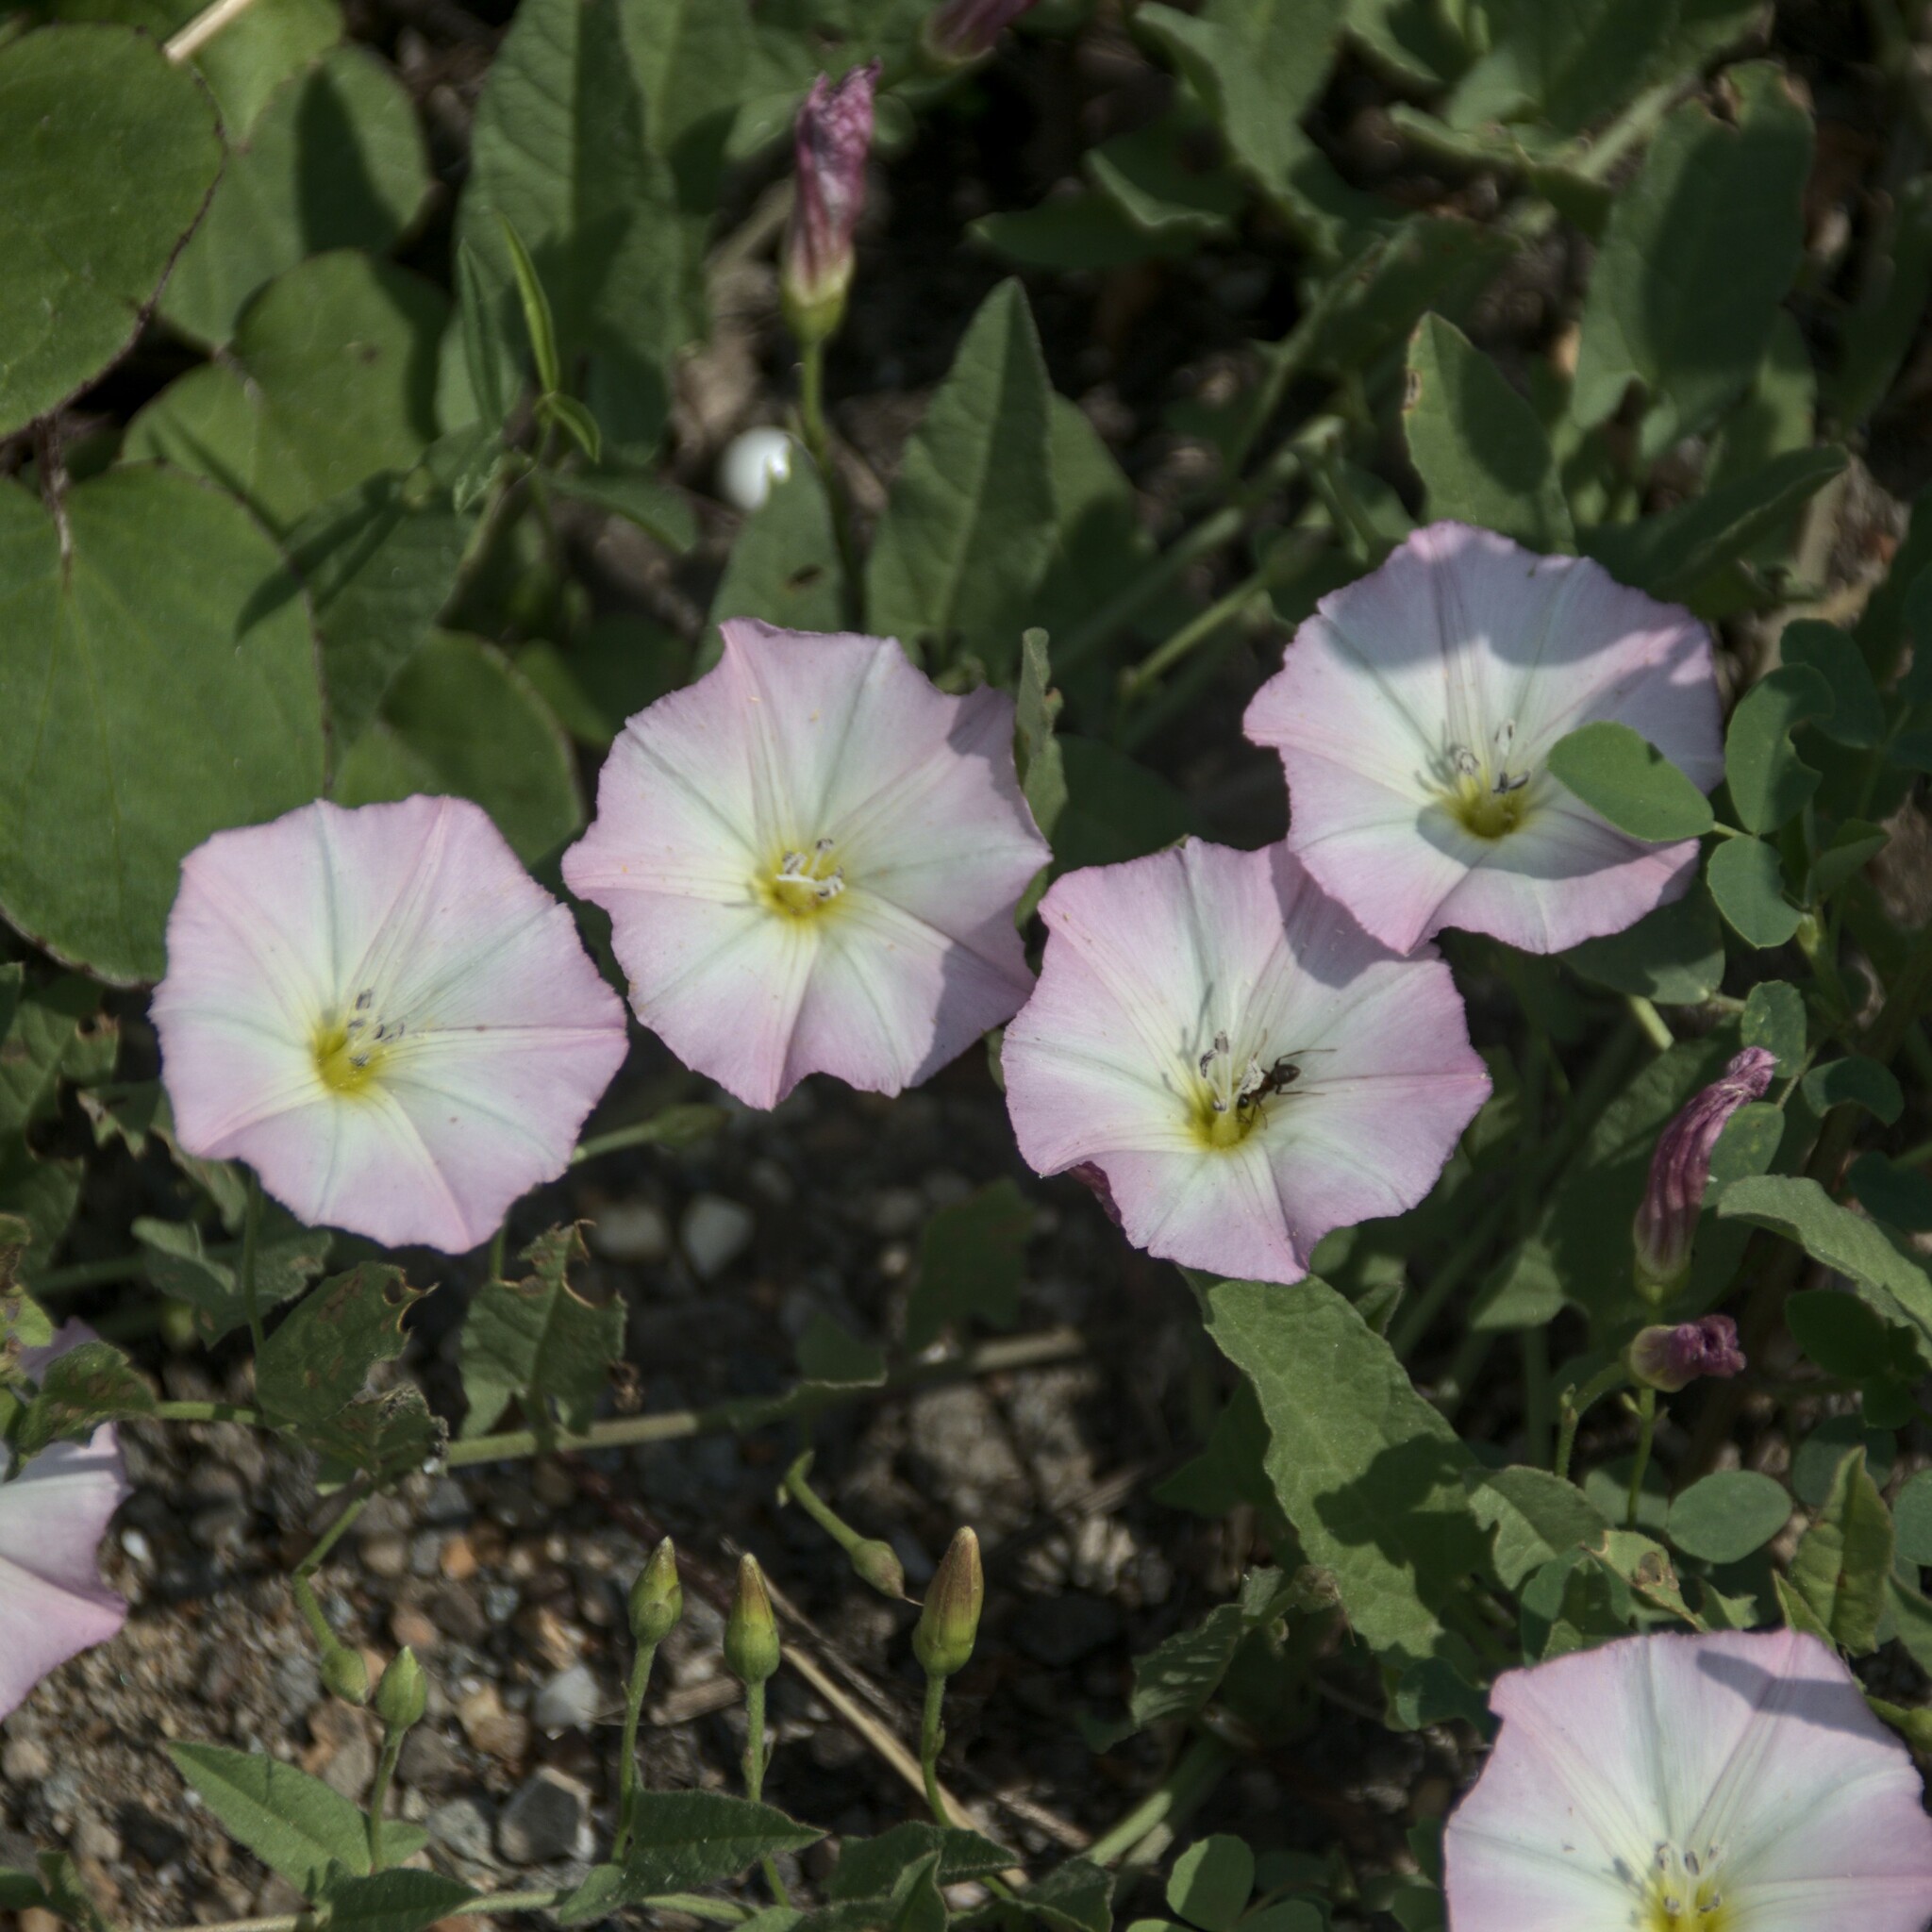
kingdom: Plantae
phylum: Tracheophyta
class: Magnoliopsida
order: Solanales
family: Convolvulaceae
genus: Convolvulus
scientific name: Convolvulus arvensis
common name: Field bindweed
